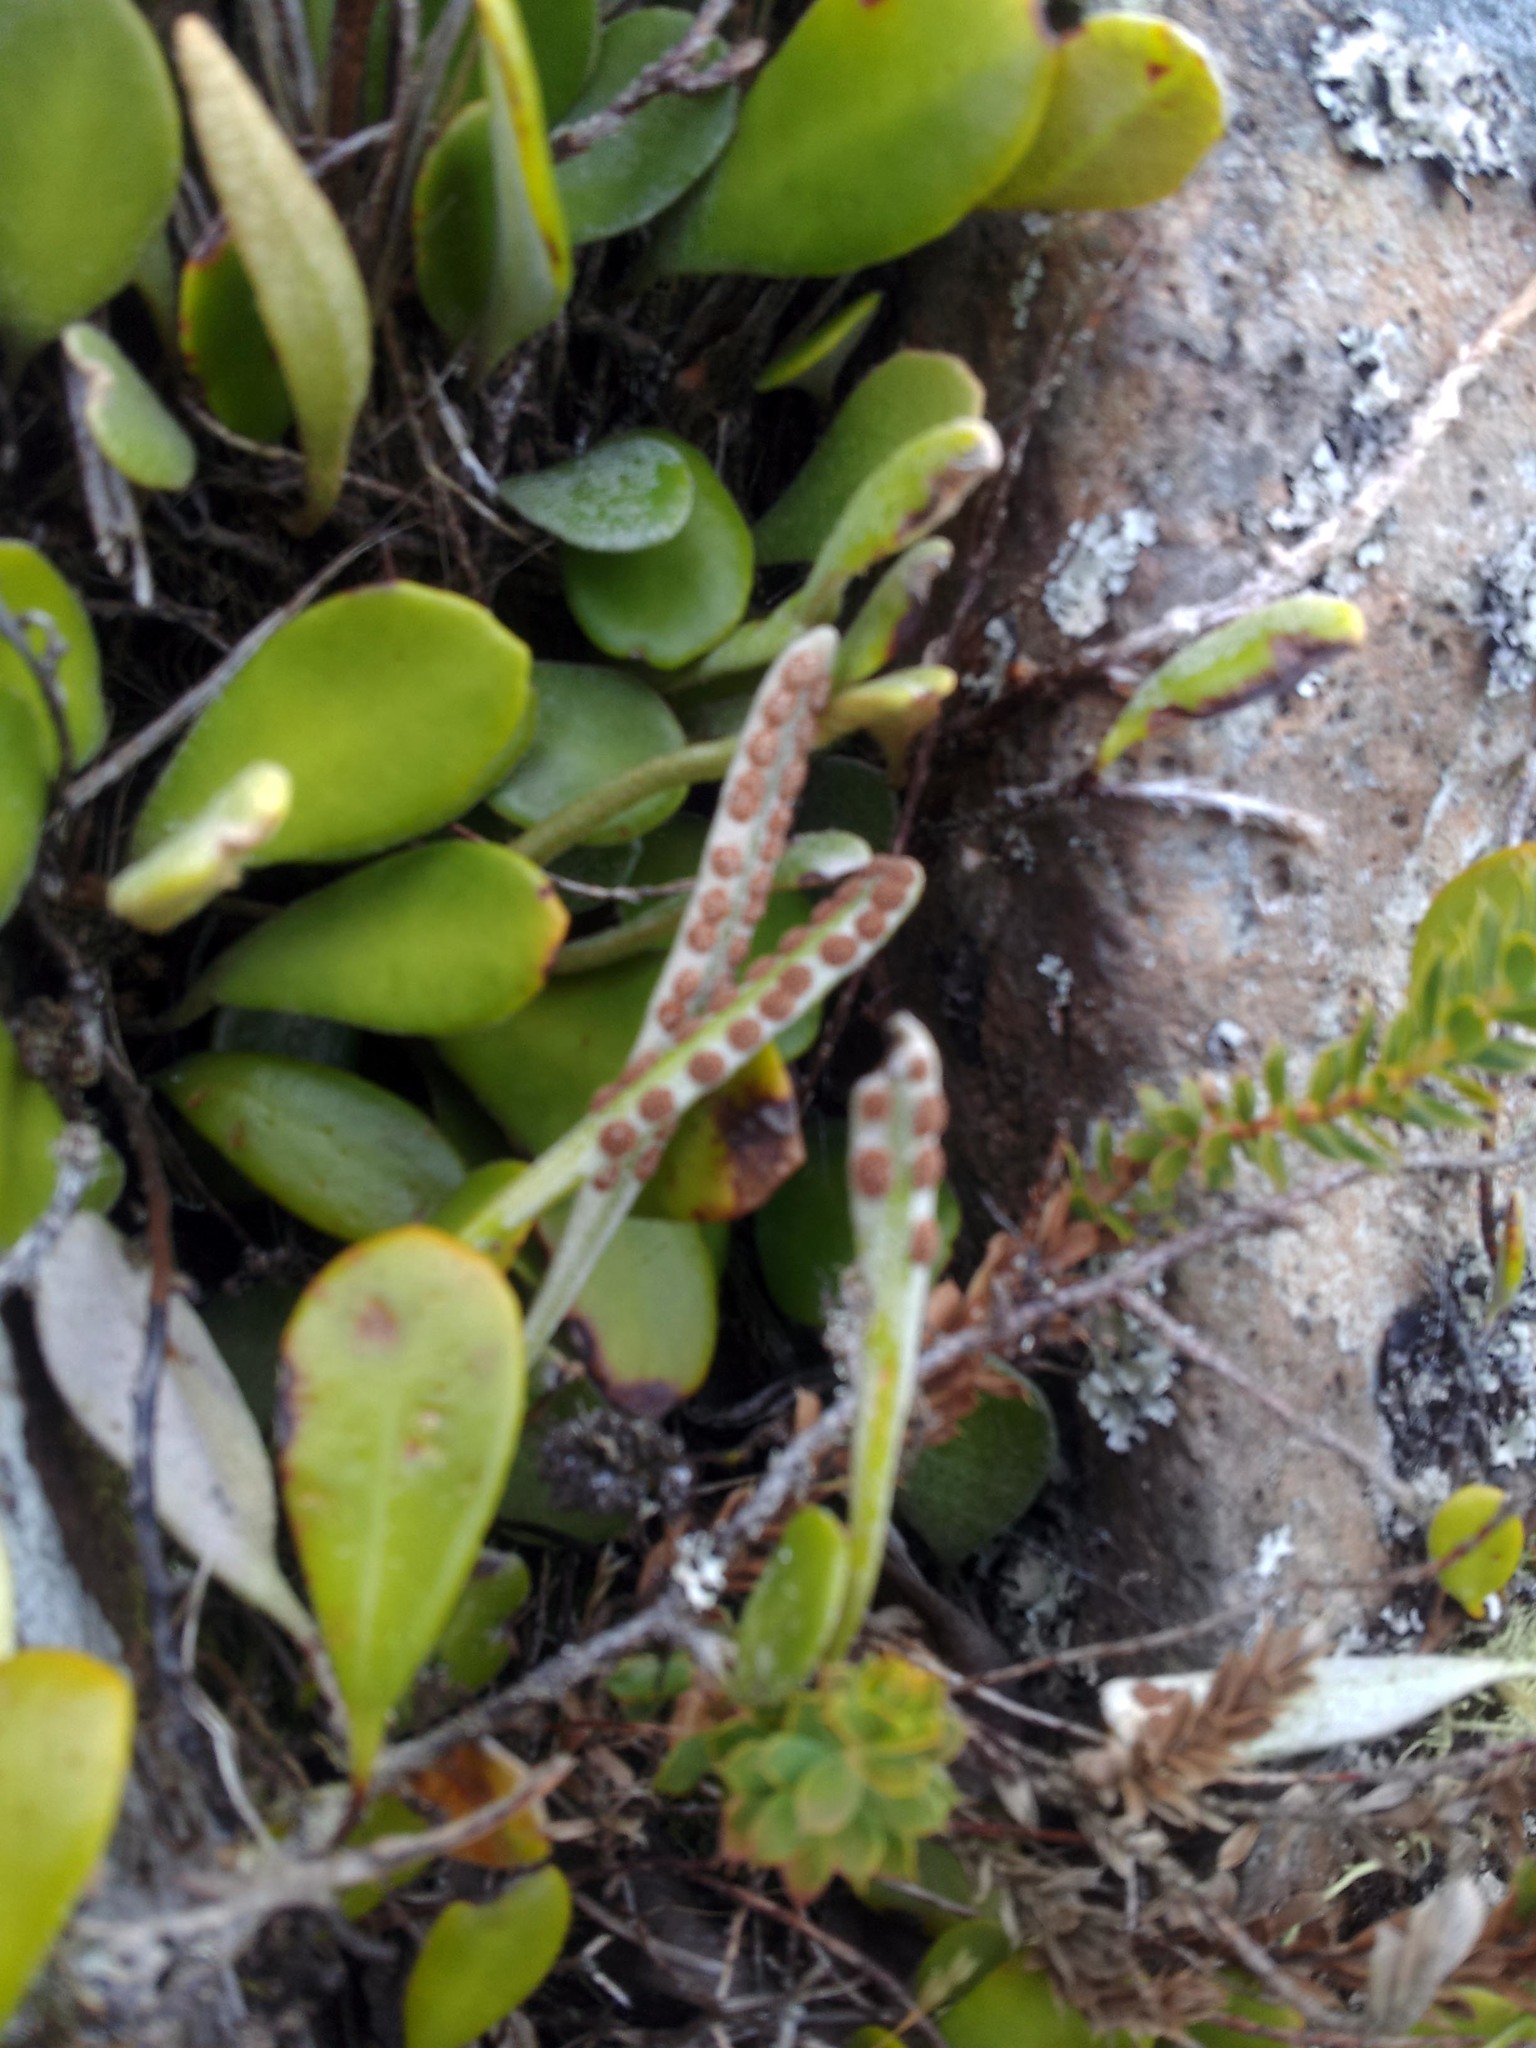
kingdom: Plantae
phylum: Tracheophyta
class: Polypodiopsida
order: Polypodiales
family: Polypodiaceae
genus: Pyrrosia
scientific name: Pyrrosia eleagnifolia
